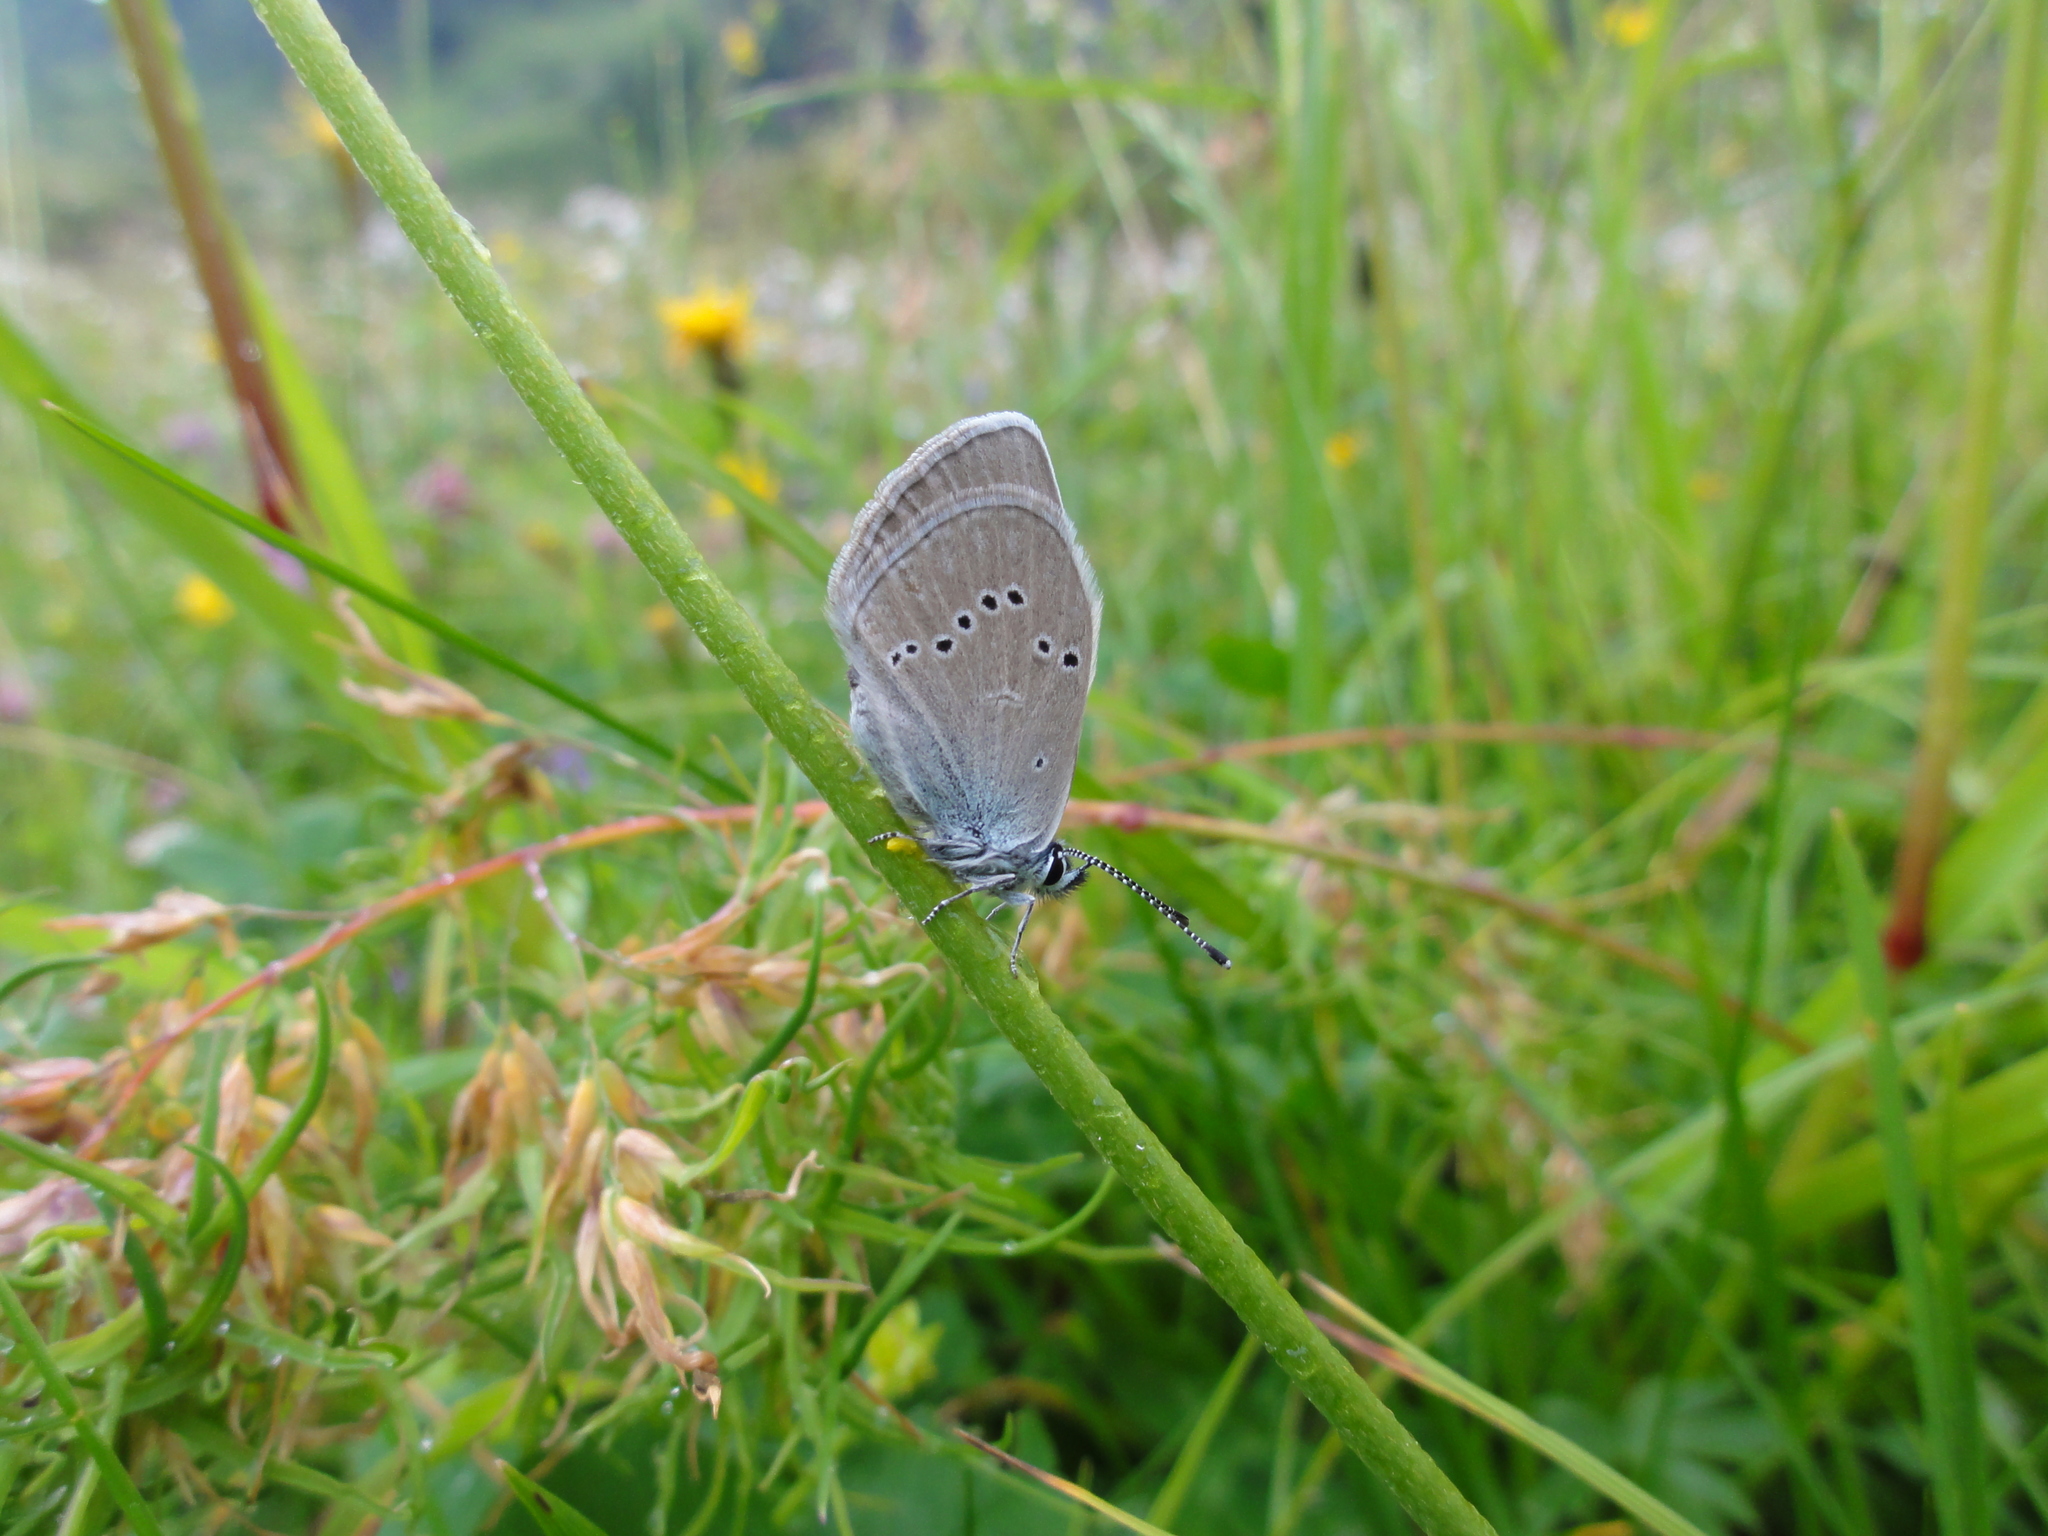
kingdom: Animalia
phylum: Arthropoda
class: Insecta
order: Lepidoptera
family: Lycaenidae
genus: Cyaniris
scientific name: Cyaniris semiargus
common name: Mazarine blue
